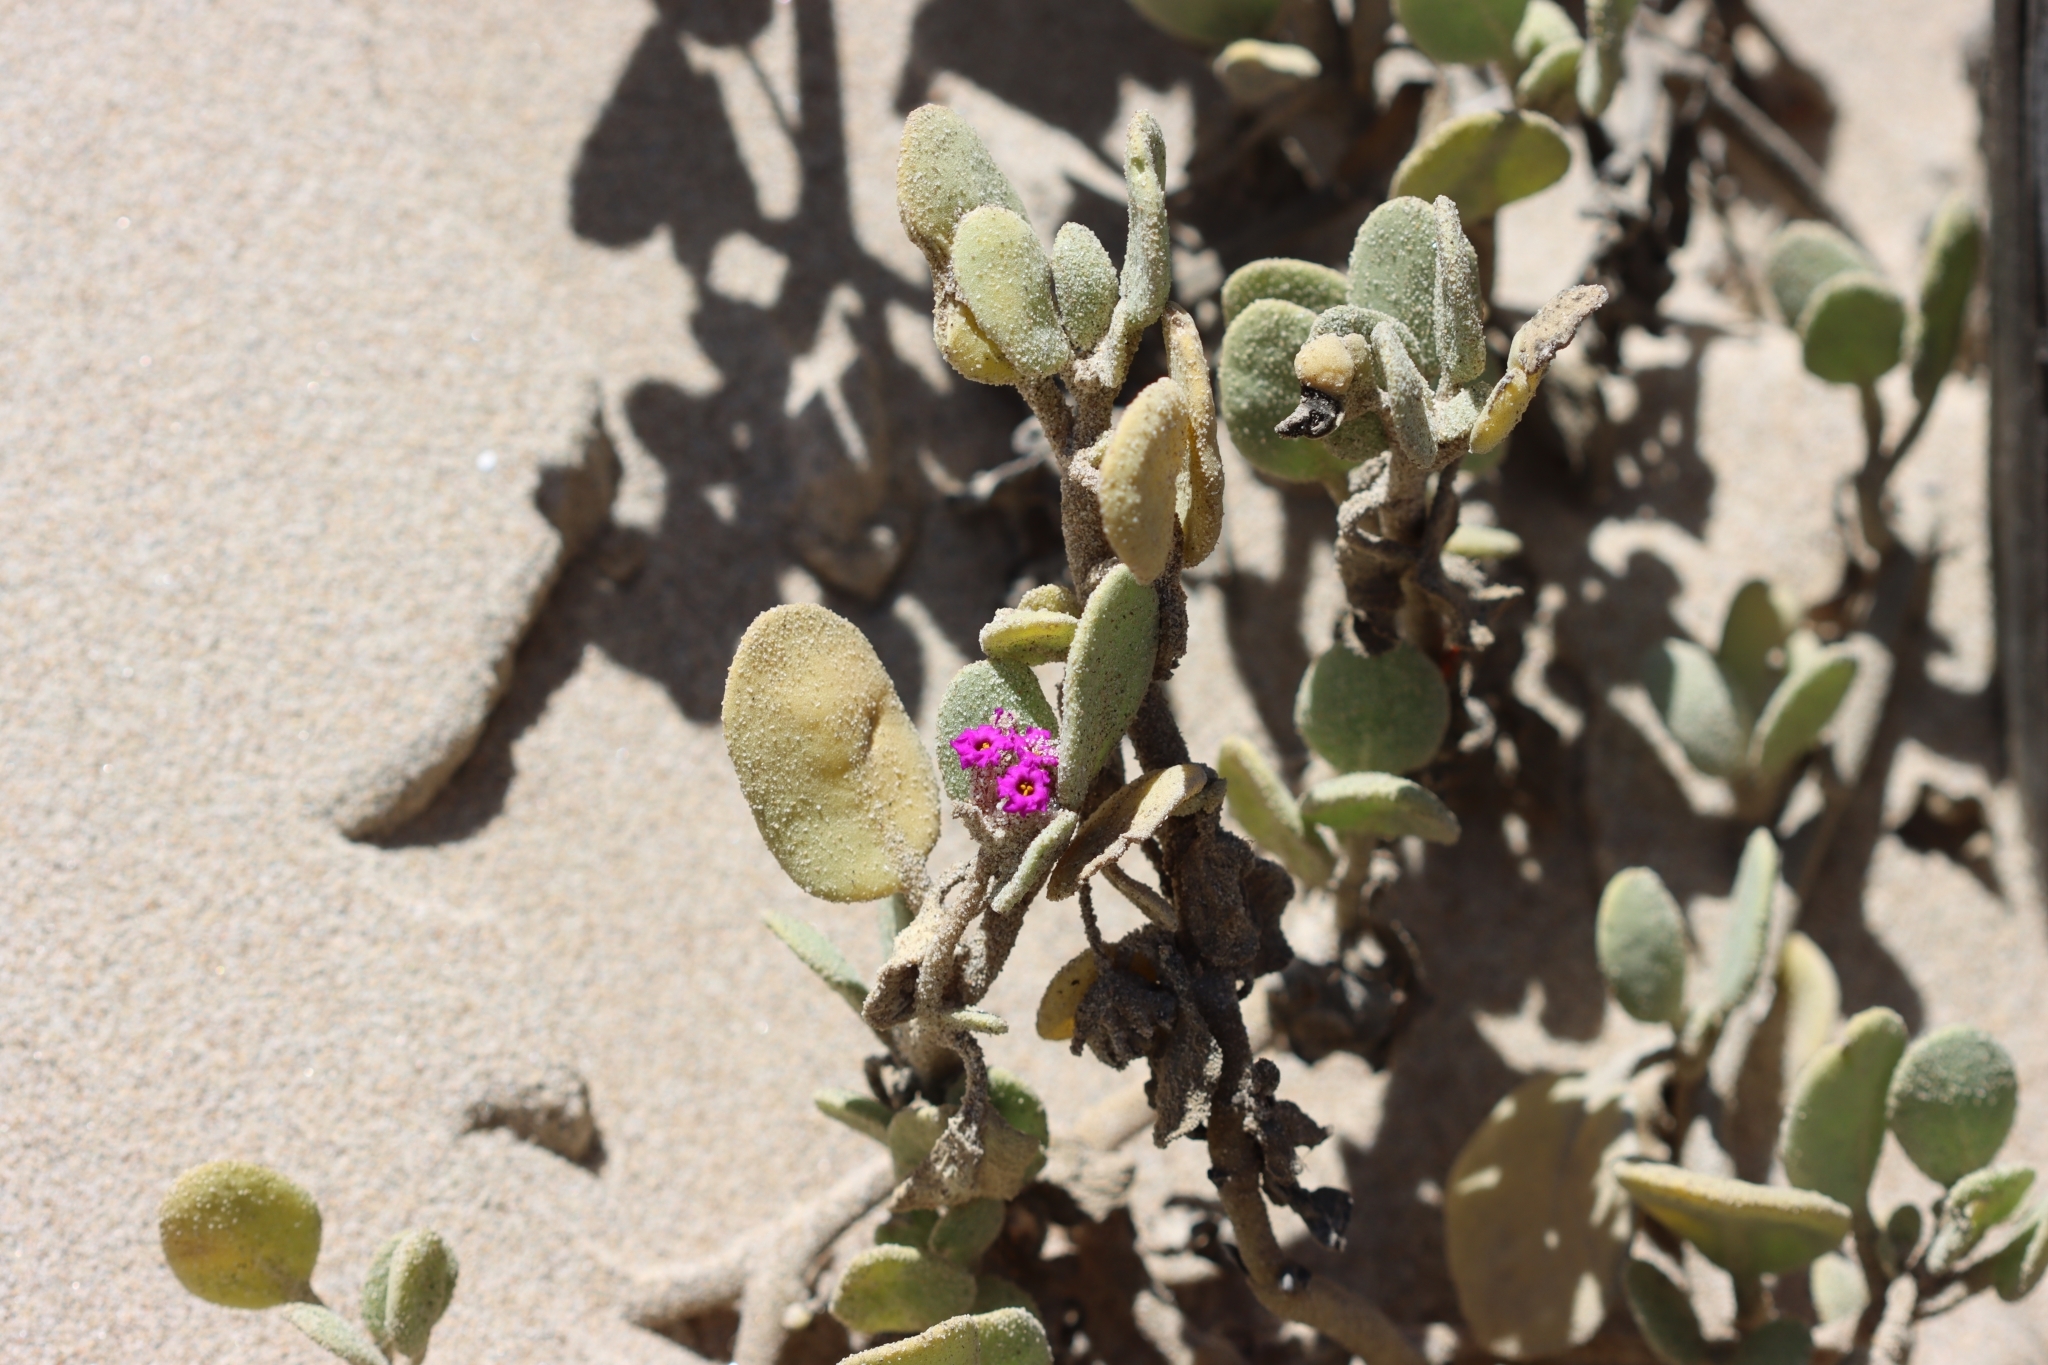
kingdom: Plantae
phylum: Tracheophyta
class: Magnoliopsida
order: Caryophyllales
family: Nyctaginaceae
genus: Abronia
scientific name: Abronia maritima
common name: Red sand-verbena
